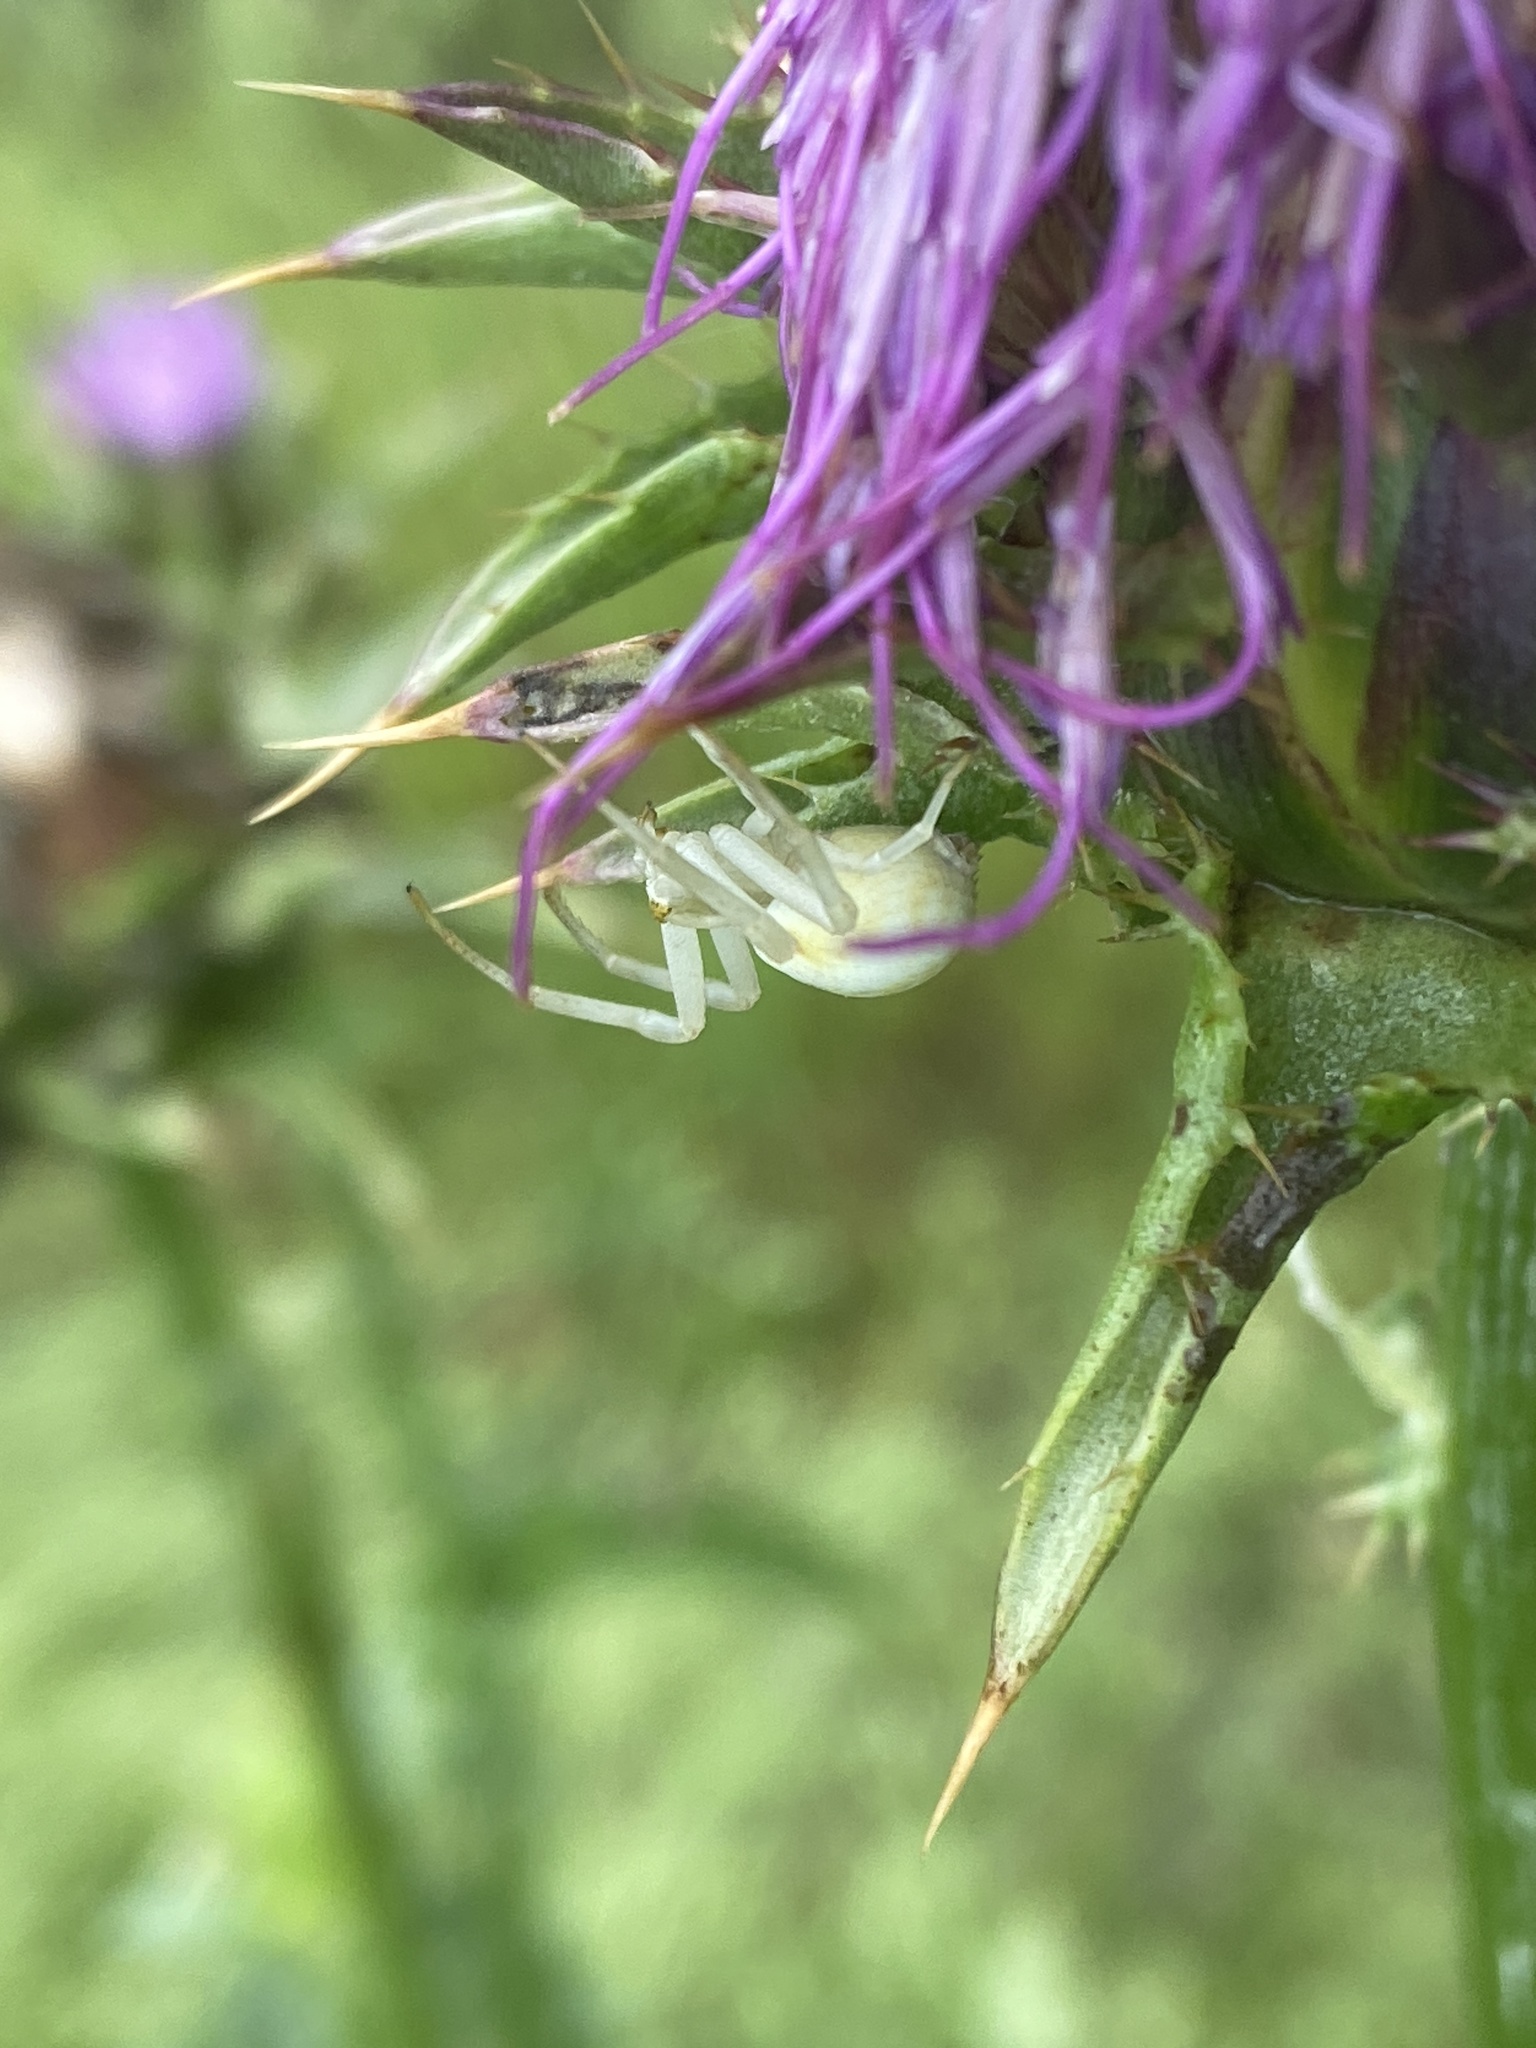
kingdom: Animalia
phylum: Arthropoda
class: Arachnida
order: Araneae
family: Thomisidae
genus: Misumena
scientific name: Misumena vatia
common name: Goldenrod crab spider
